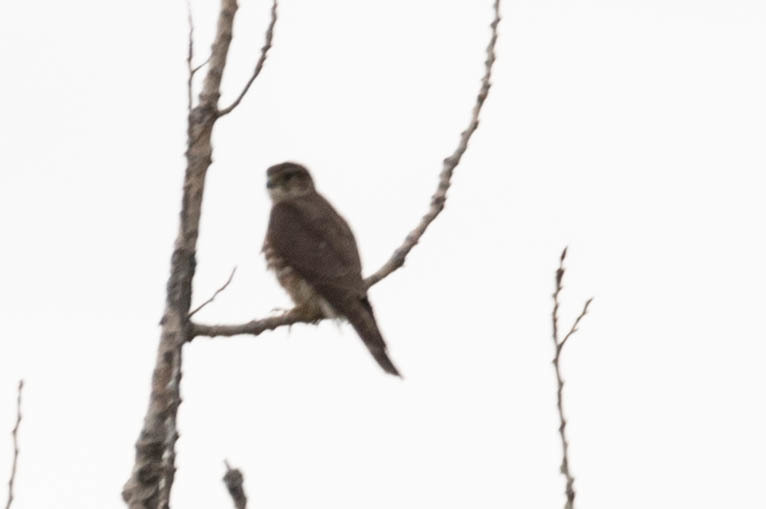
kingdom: Animalia
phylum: Chordata
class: Aves
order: Falconiformes
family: Falconidae
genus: Falco
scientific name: Falco columbarius
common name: Merlin
